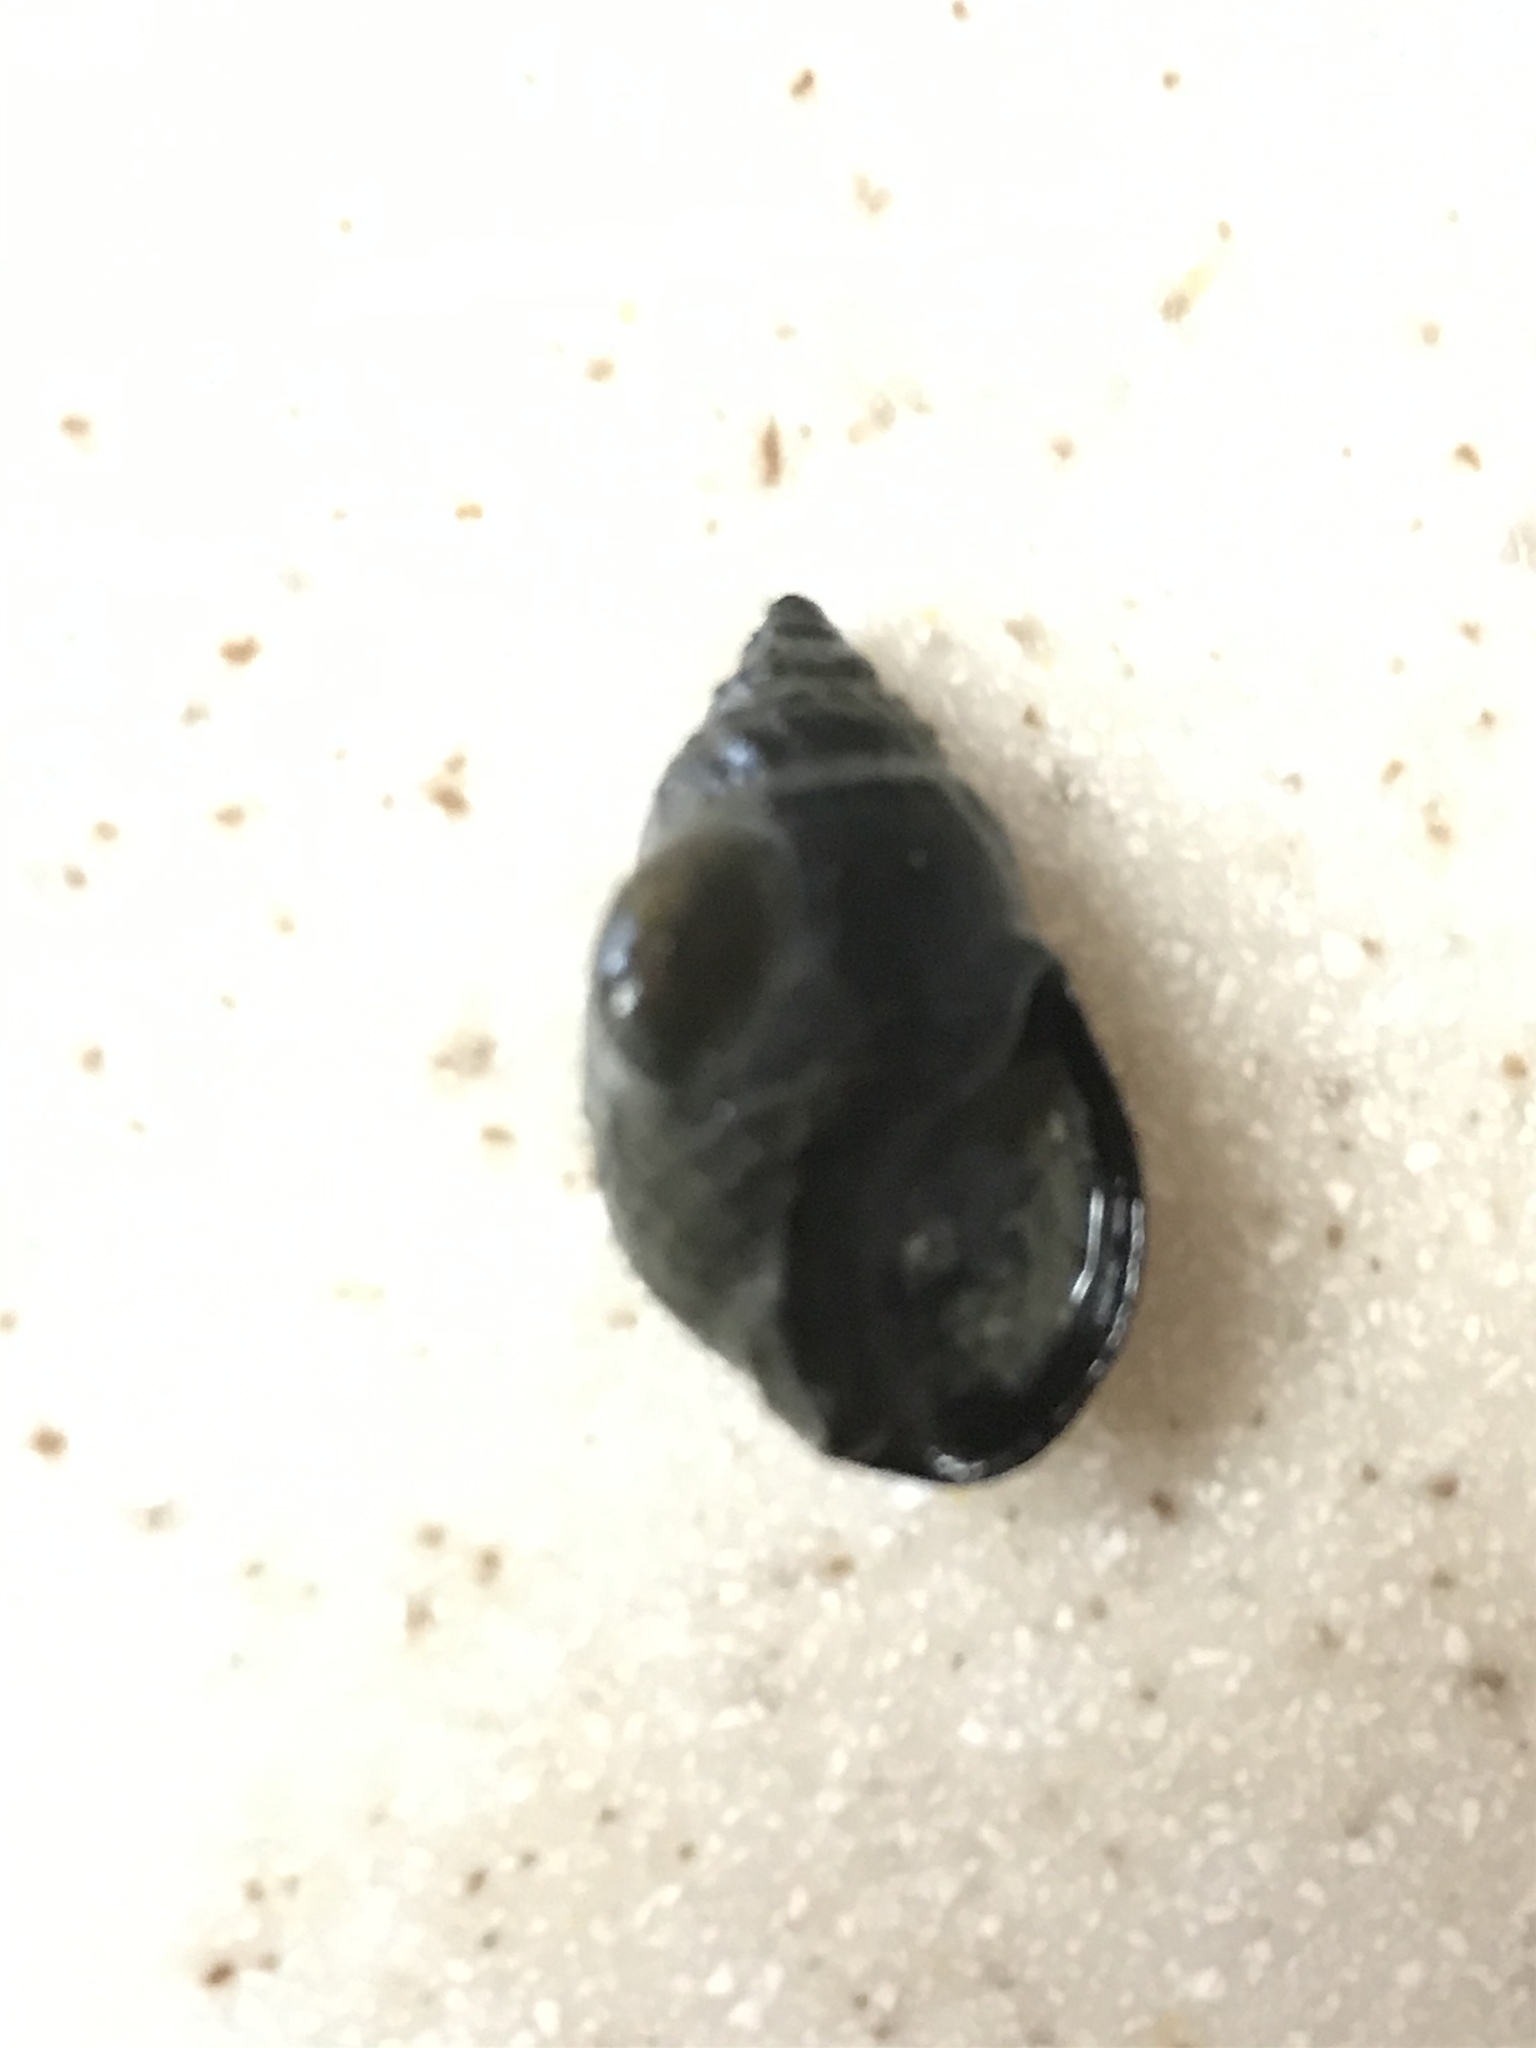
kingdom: Animalia
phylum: Mollusca
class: Gastropoda
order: Neogastropoda
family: Nassariidae
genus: Ilyanassa
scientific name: Ilyanassa obsoleta
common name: Eastern mudsnail
